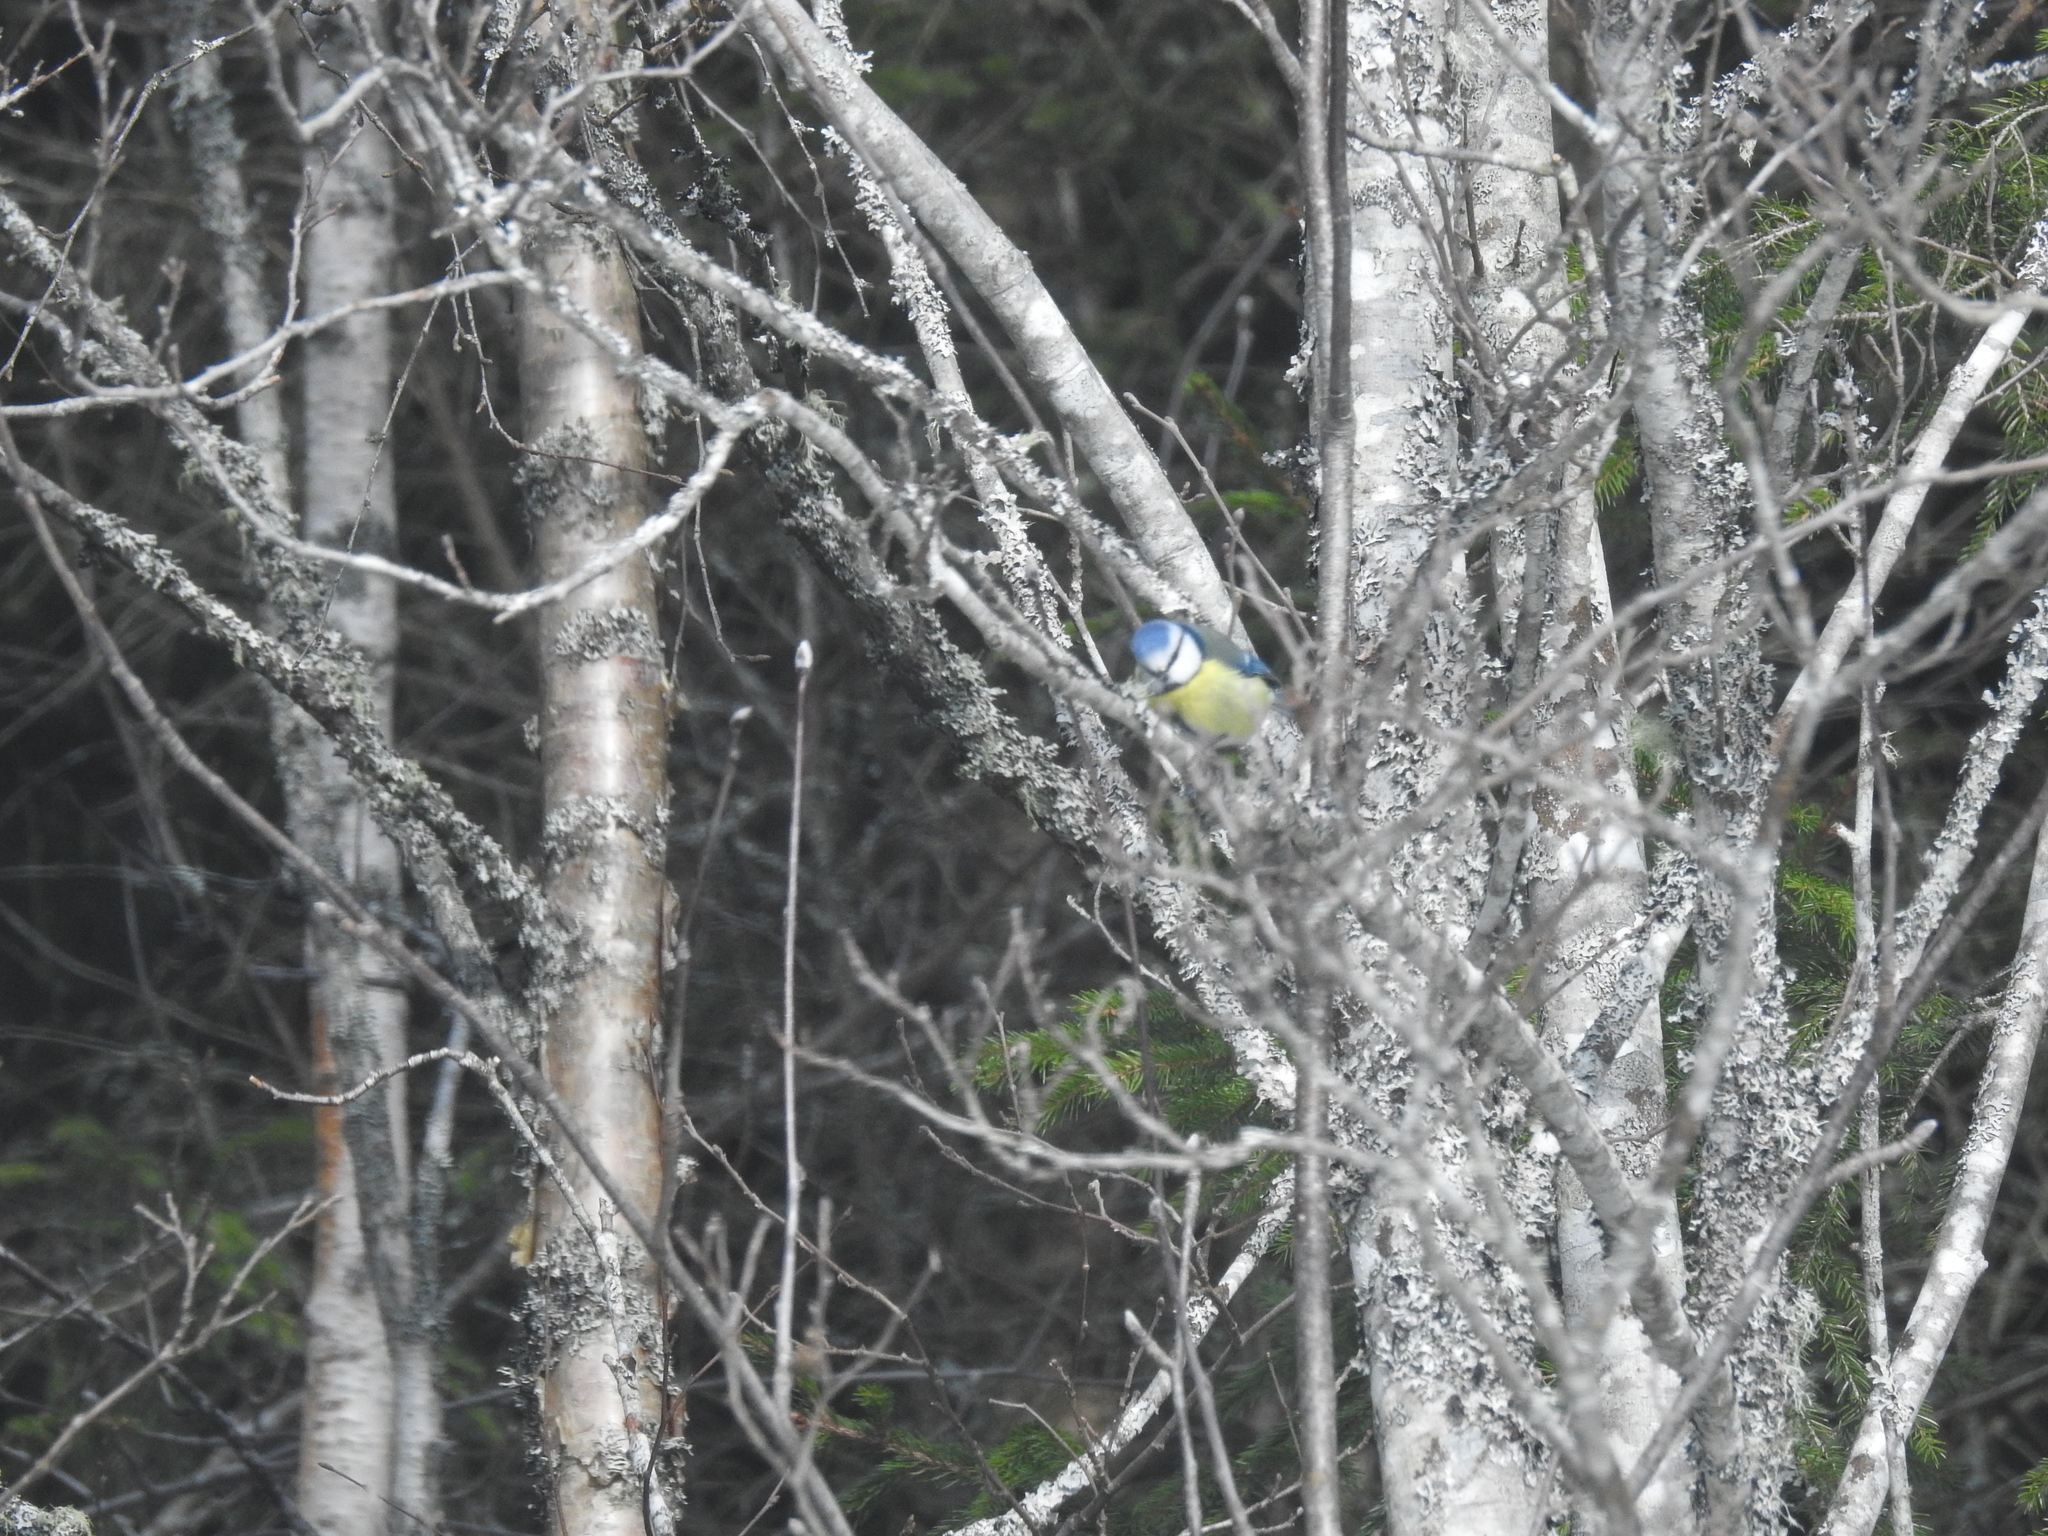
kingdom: Animalia
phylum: Chordata
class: Aves
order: Passeriformes
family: Paridae
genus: Cyanistes
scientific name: Cyanistes caeruleus
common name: Eurasian blue tit
